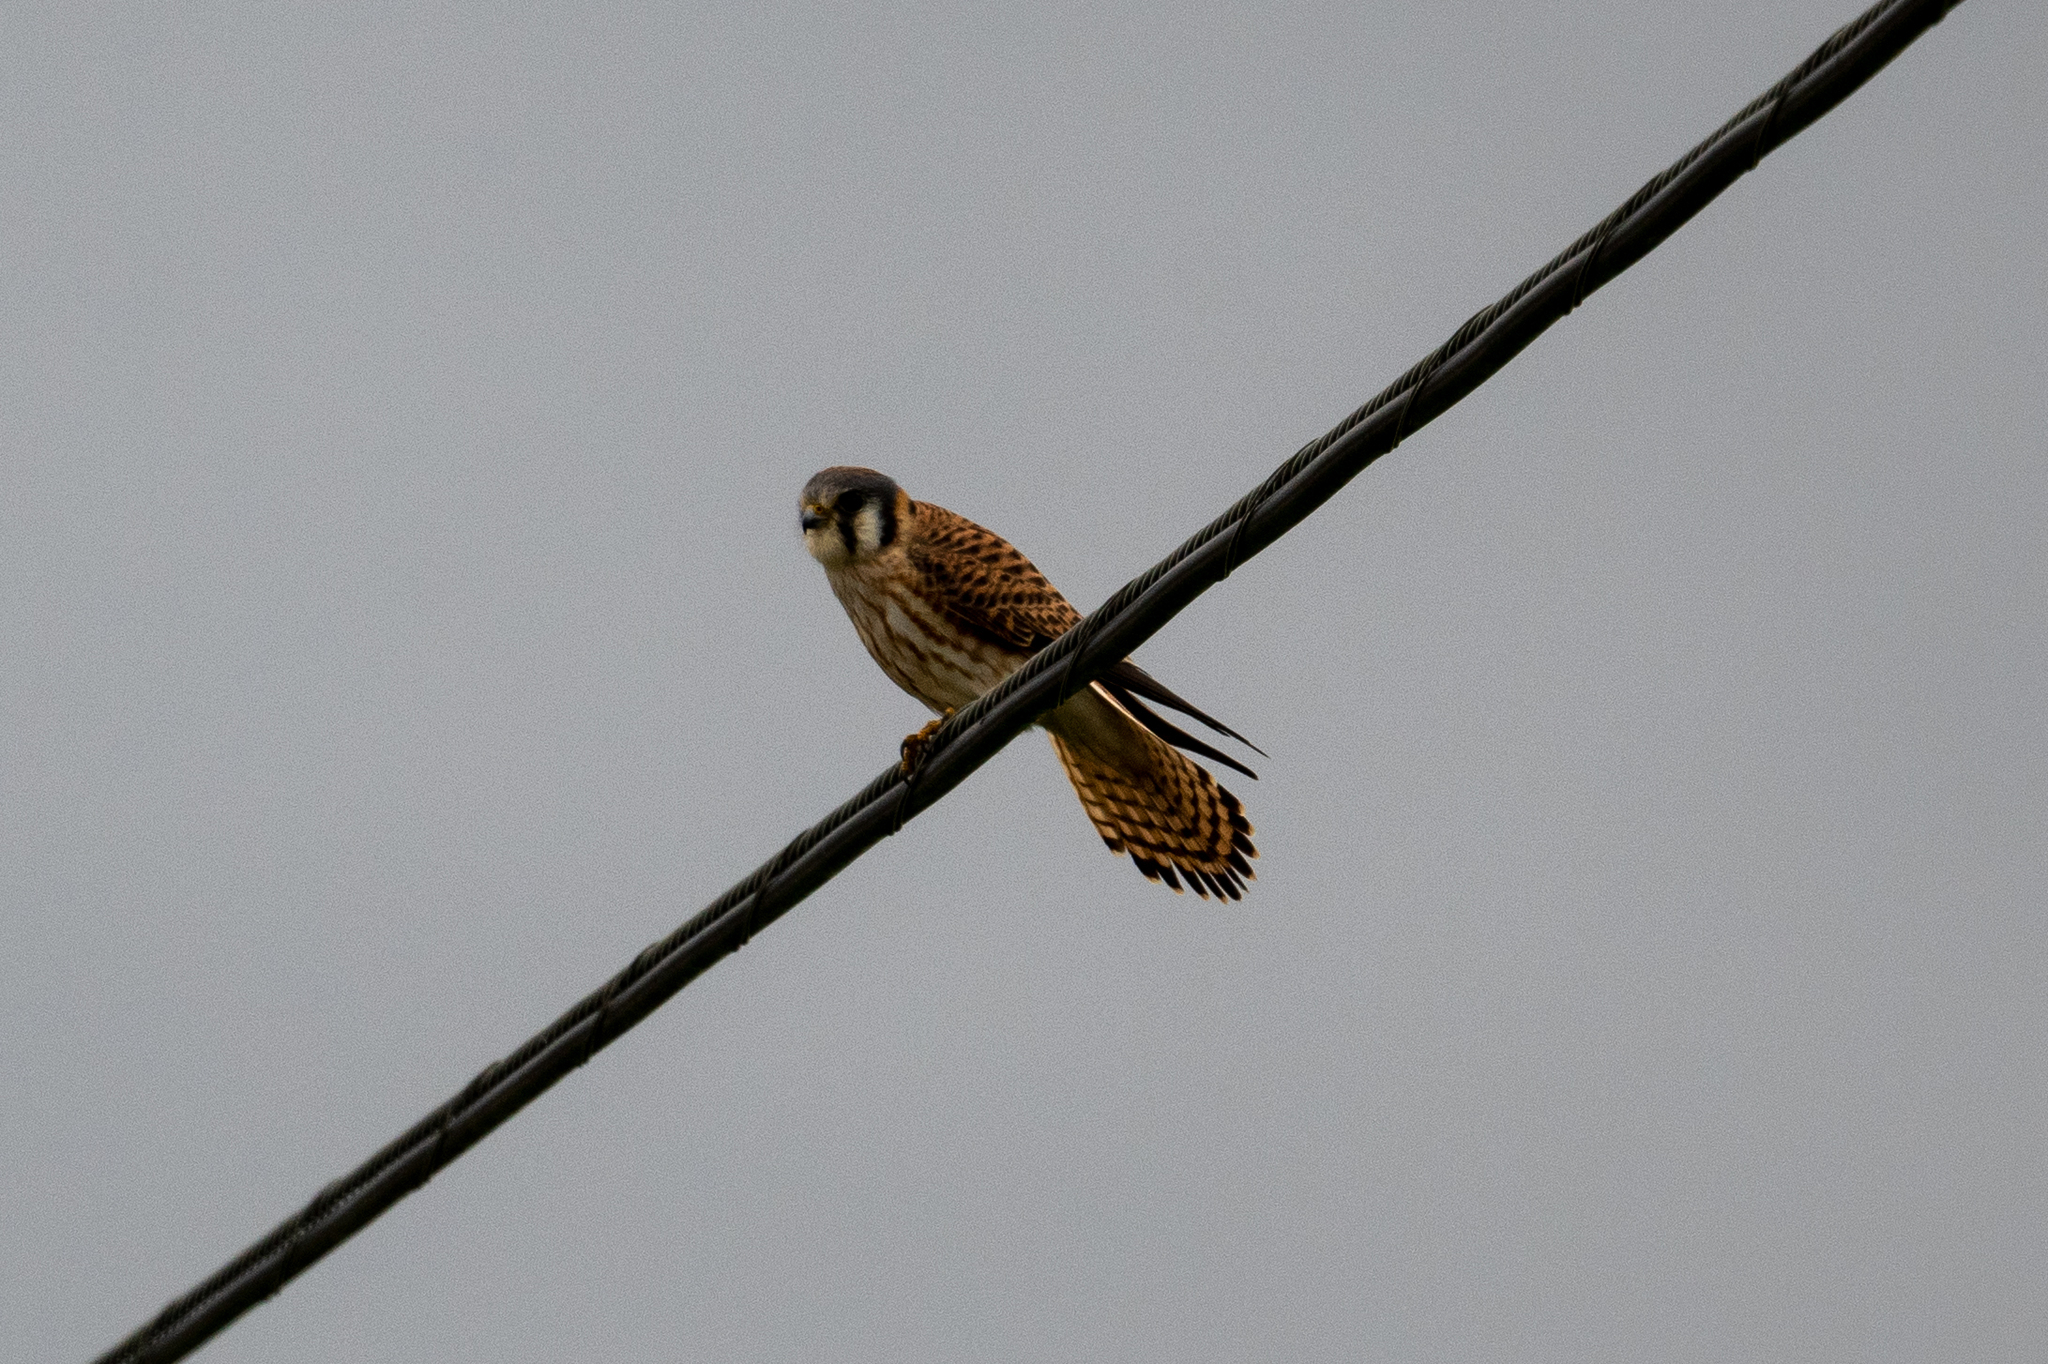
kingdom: Animalia
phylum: Chordata
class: Aves
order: Falconiformes
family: Falconidae
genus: Falco
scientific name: Falco sparverius
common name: American kestrel
